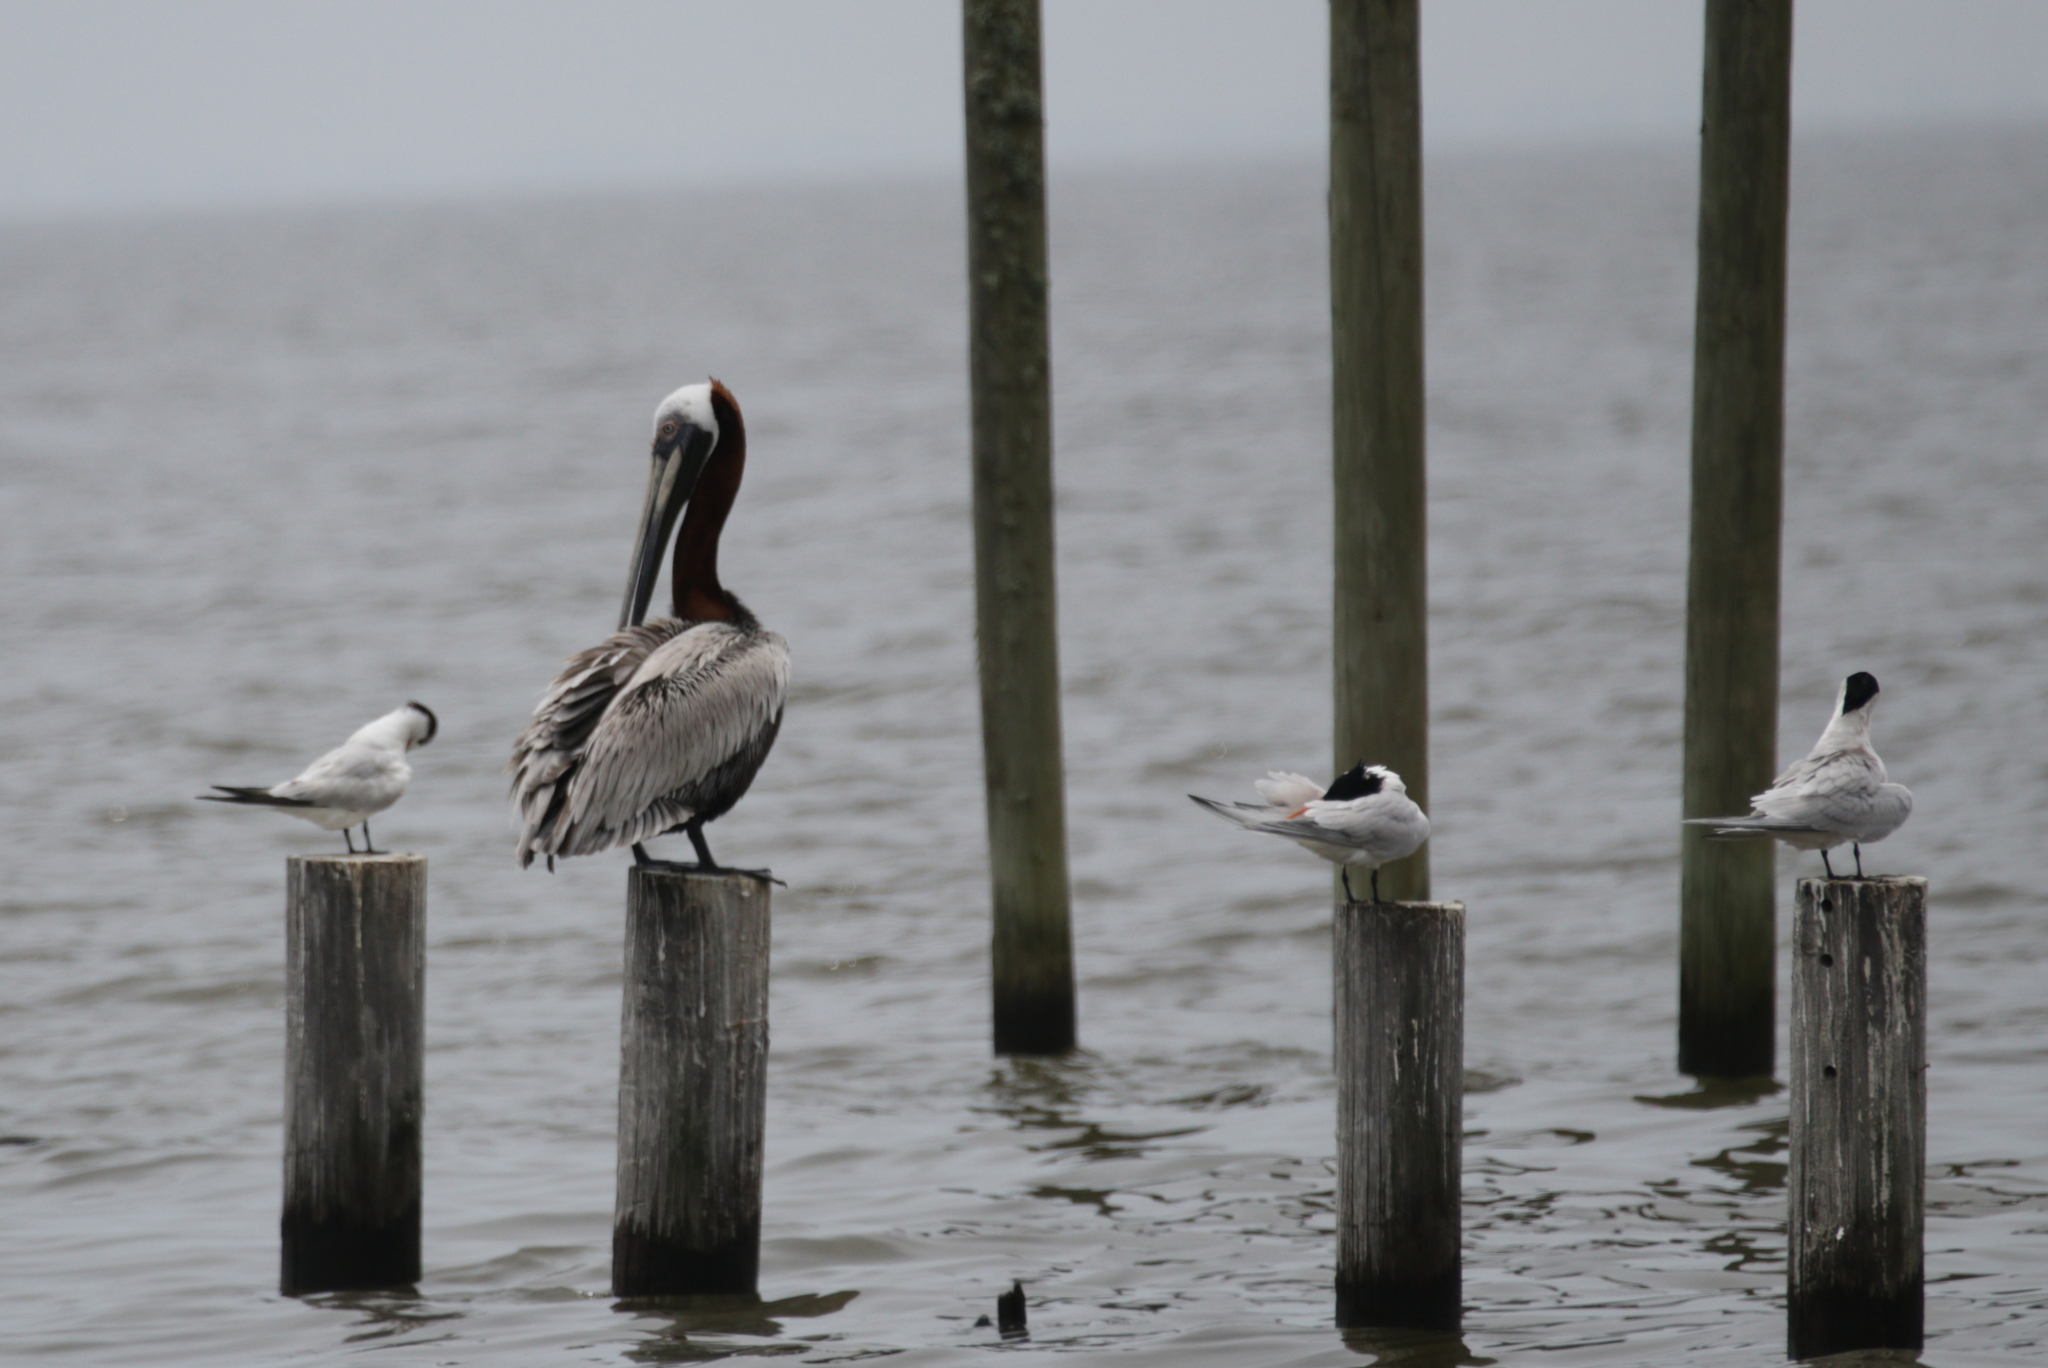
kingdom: Animalia
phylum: Chordata
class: Aves
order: Pelecaniformes
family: Pelecanidae
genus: Pelecanus
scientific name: Pelecanus occidentalis
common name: Brown pelican
